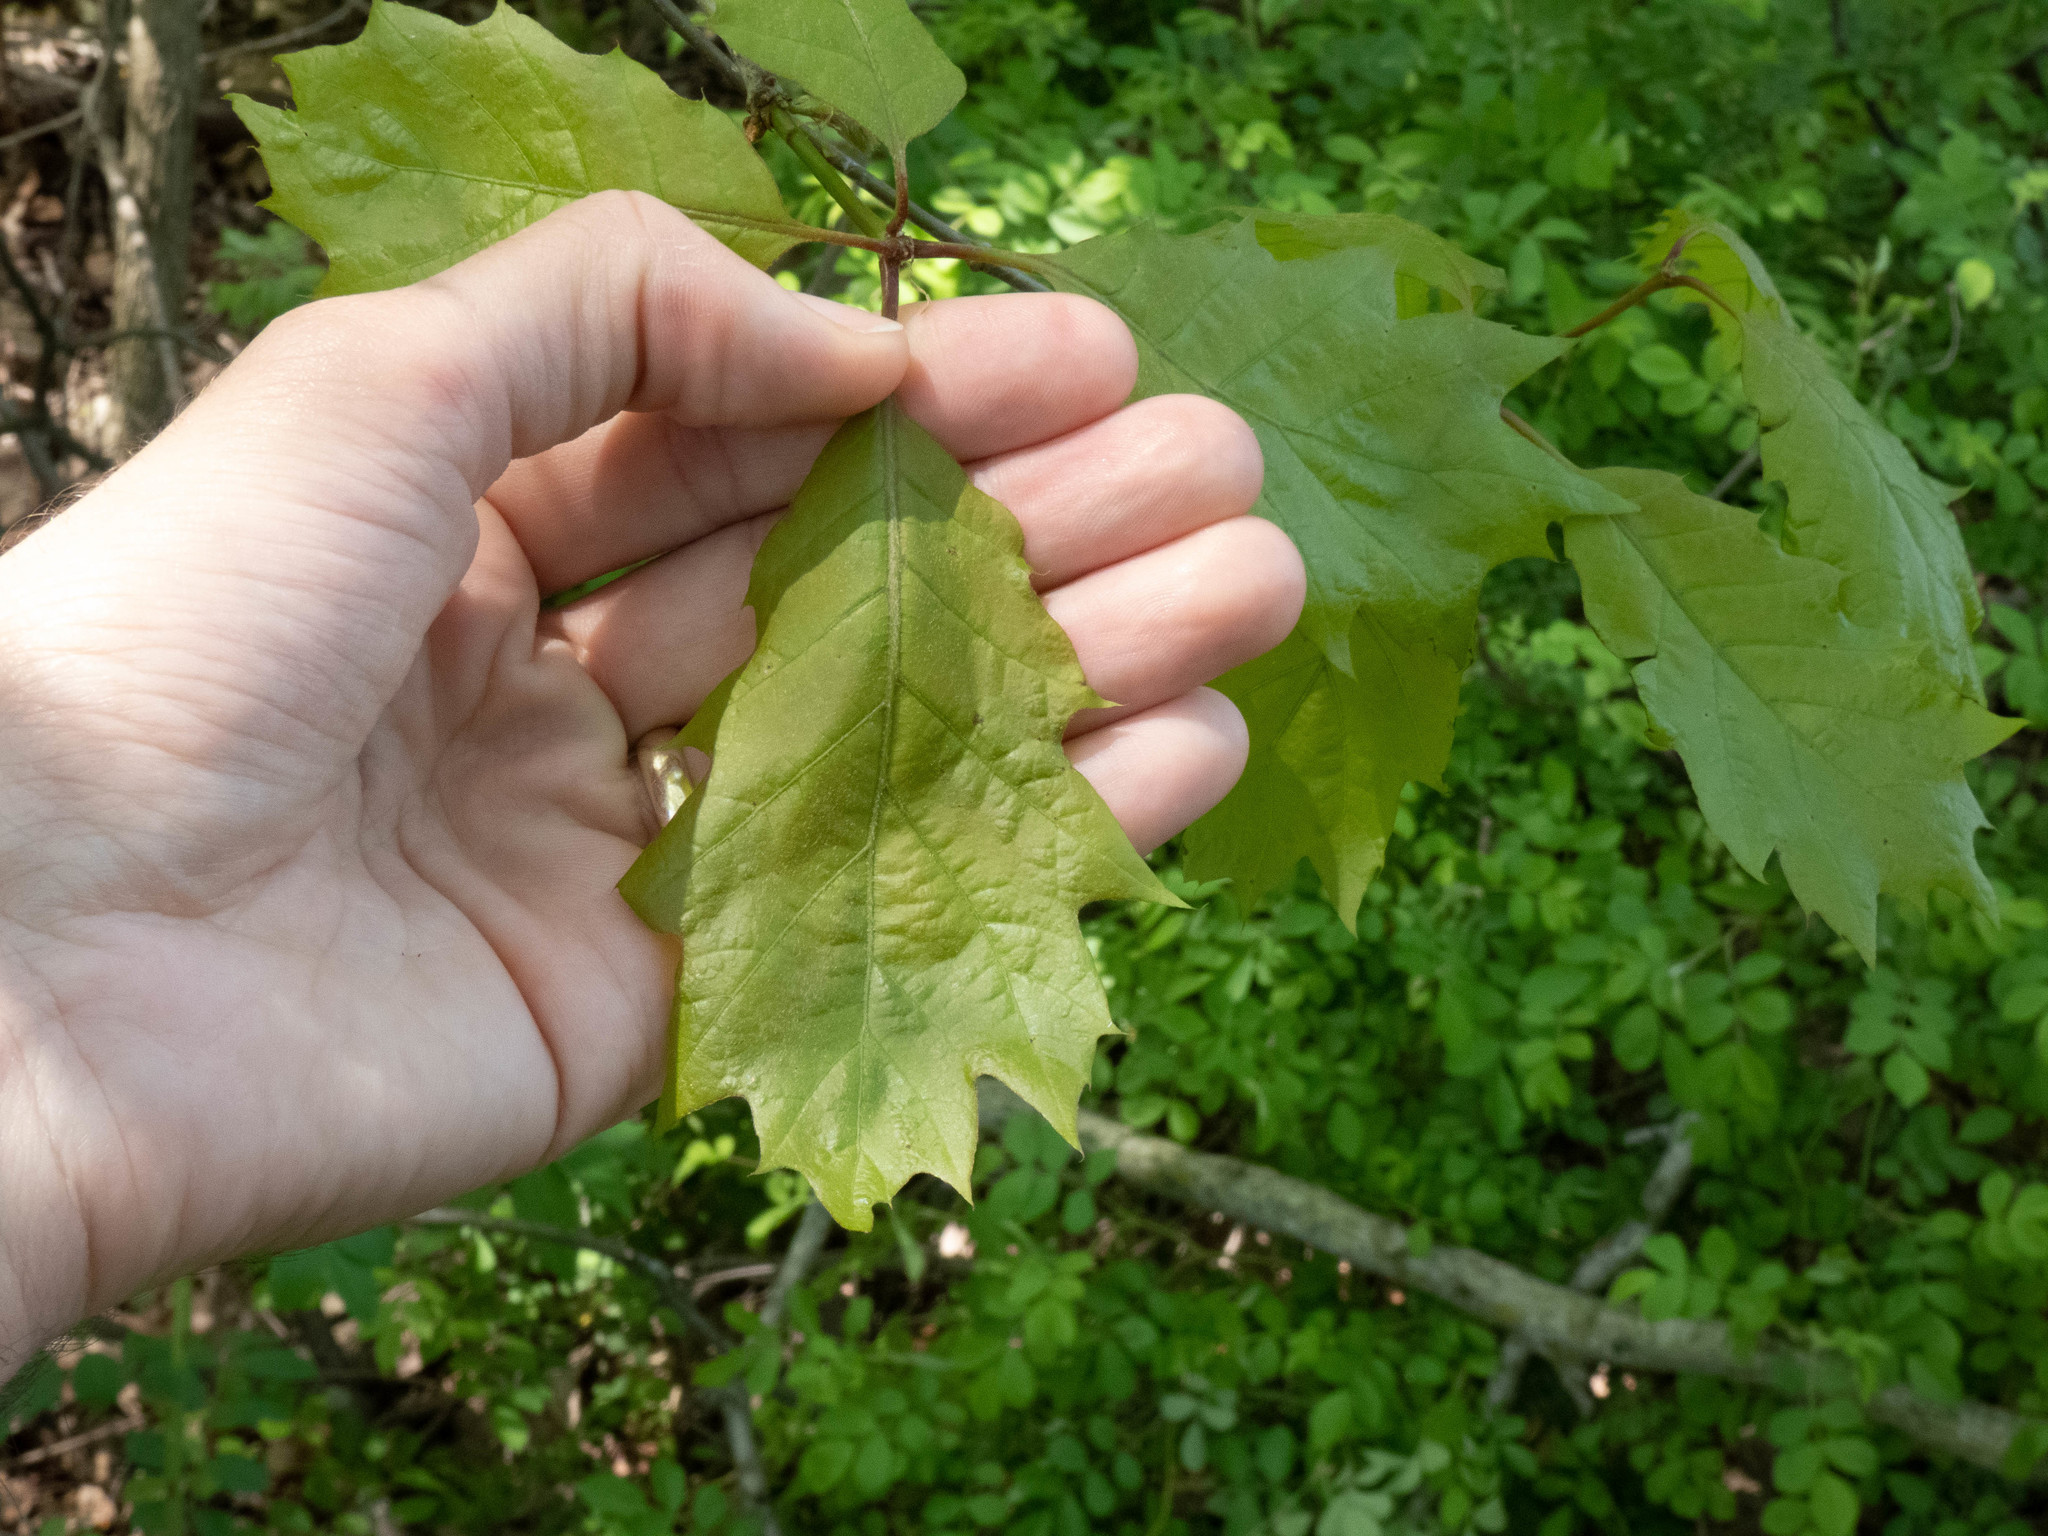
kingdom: Plantae
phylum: Tracheophyta
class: Magnoliopsida
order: Fagales
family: Fagaceae
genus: Quercus
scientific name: Quercus rubra
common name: Red oak
